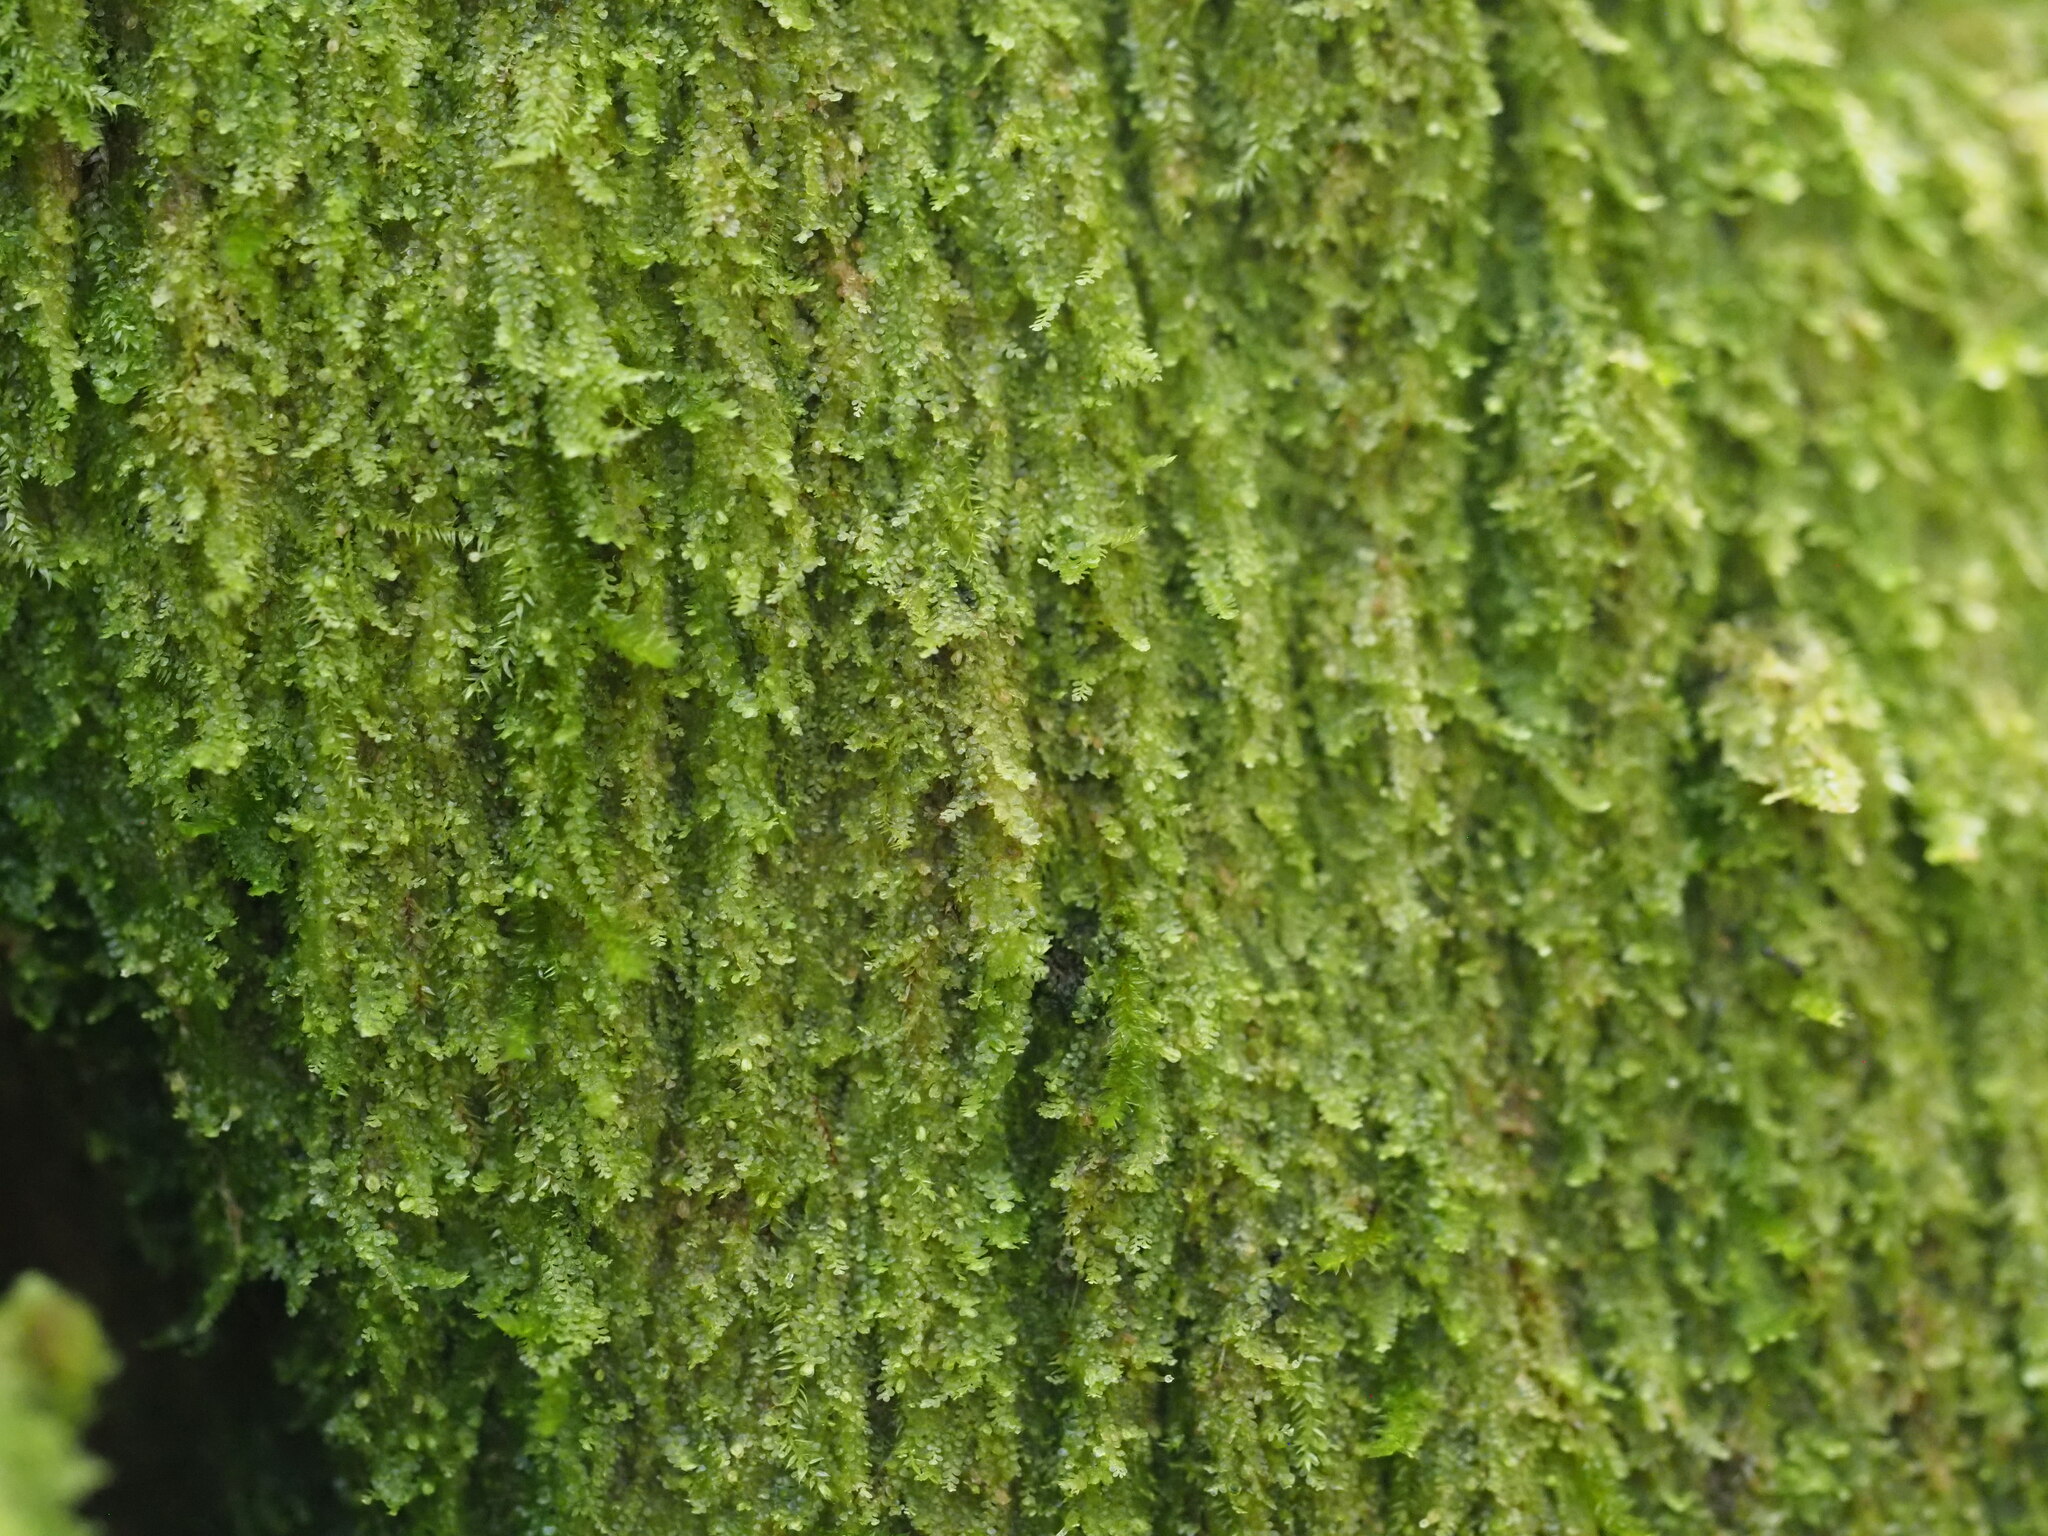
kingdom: Plantae
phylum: Marchantiophyta
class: Jungermanniopsida
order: Porellales
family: Lejeuneaceae
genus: Lejeunea
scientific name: Lejeunea flava
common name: Yellow pouncewort
